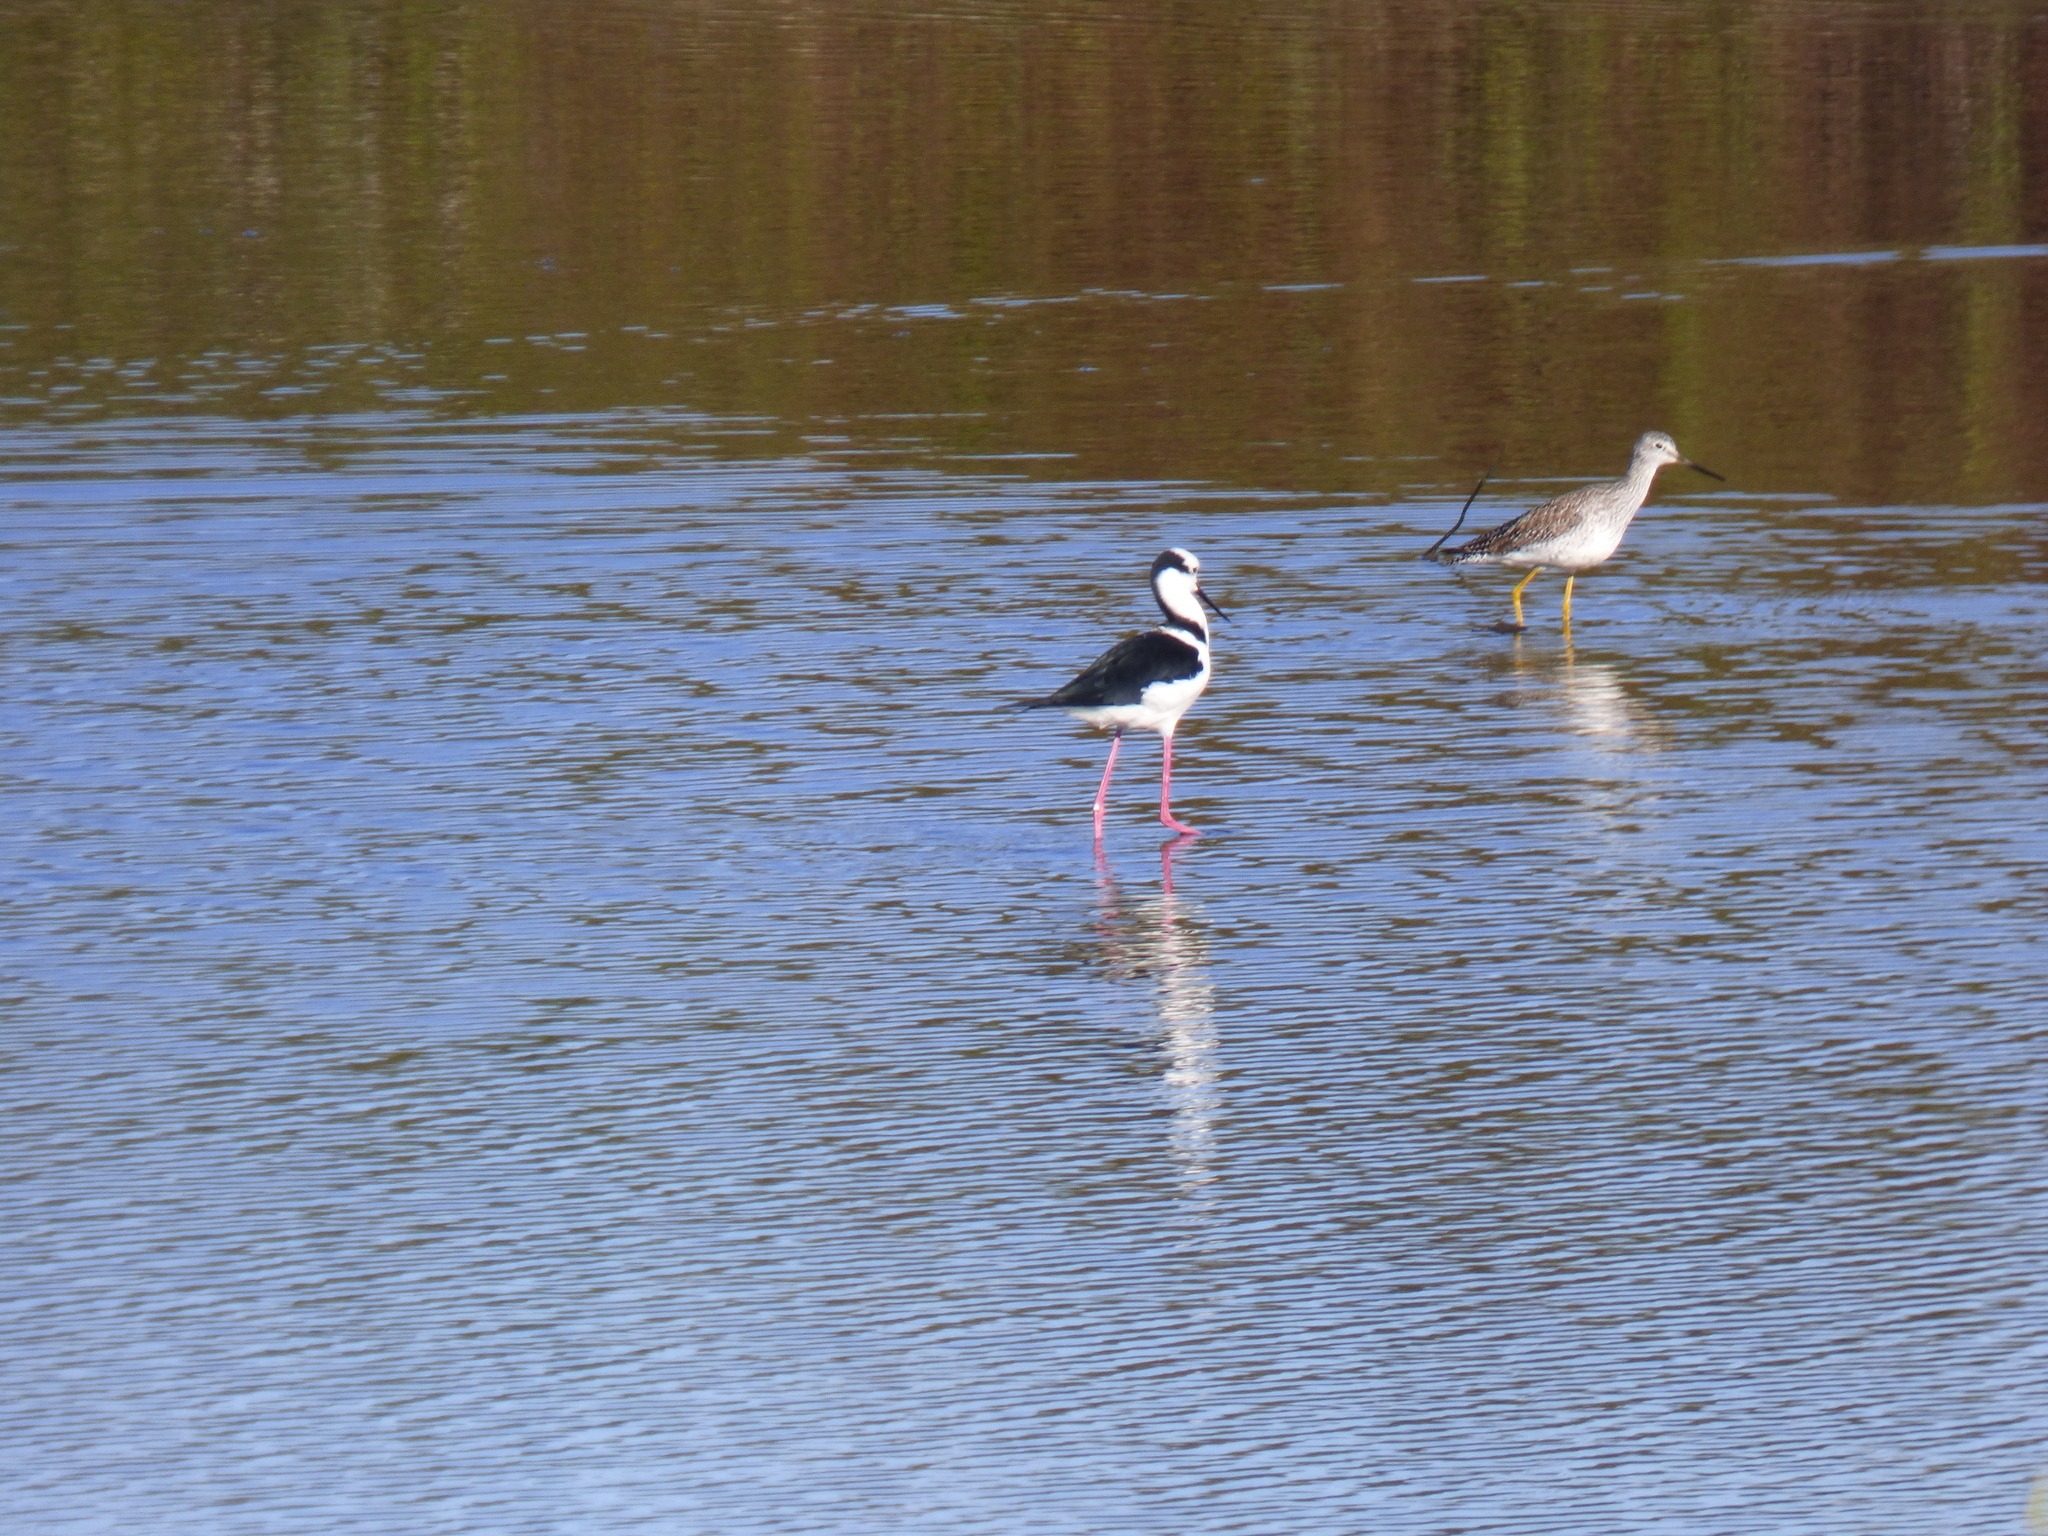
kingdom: Animalia
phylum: Chordata
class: Aves
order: Charadriiformes
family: Recurvirostridae
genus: Himantopus
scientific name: Himantopus mexicanus
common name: Black-necked stilt
